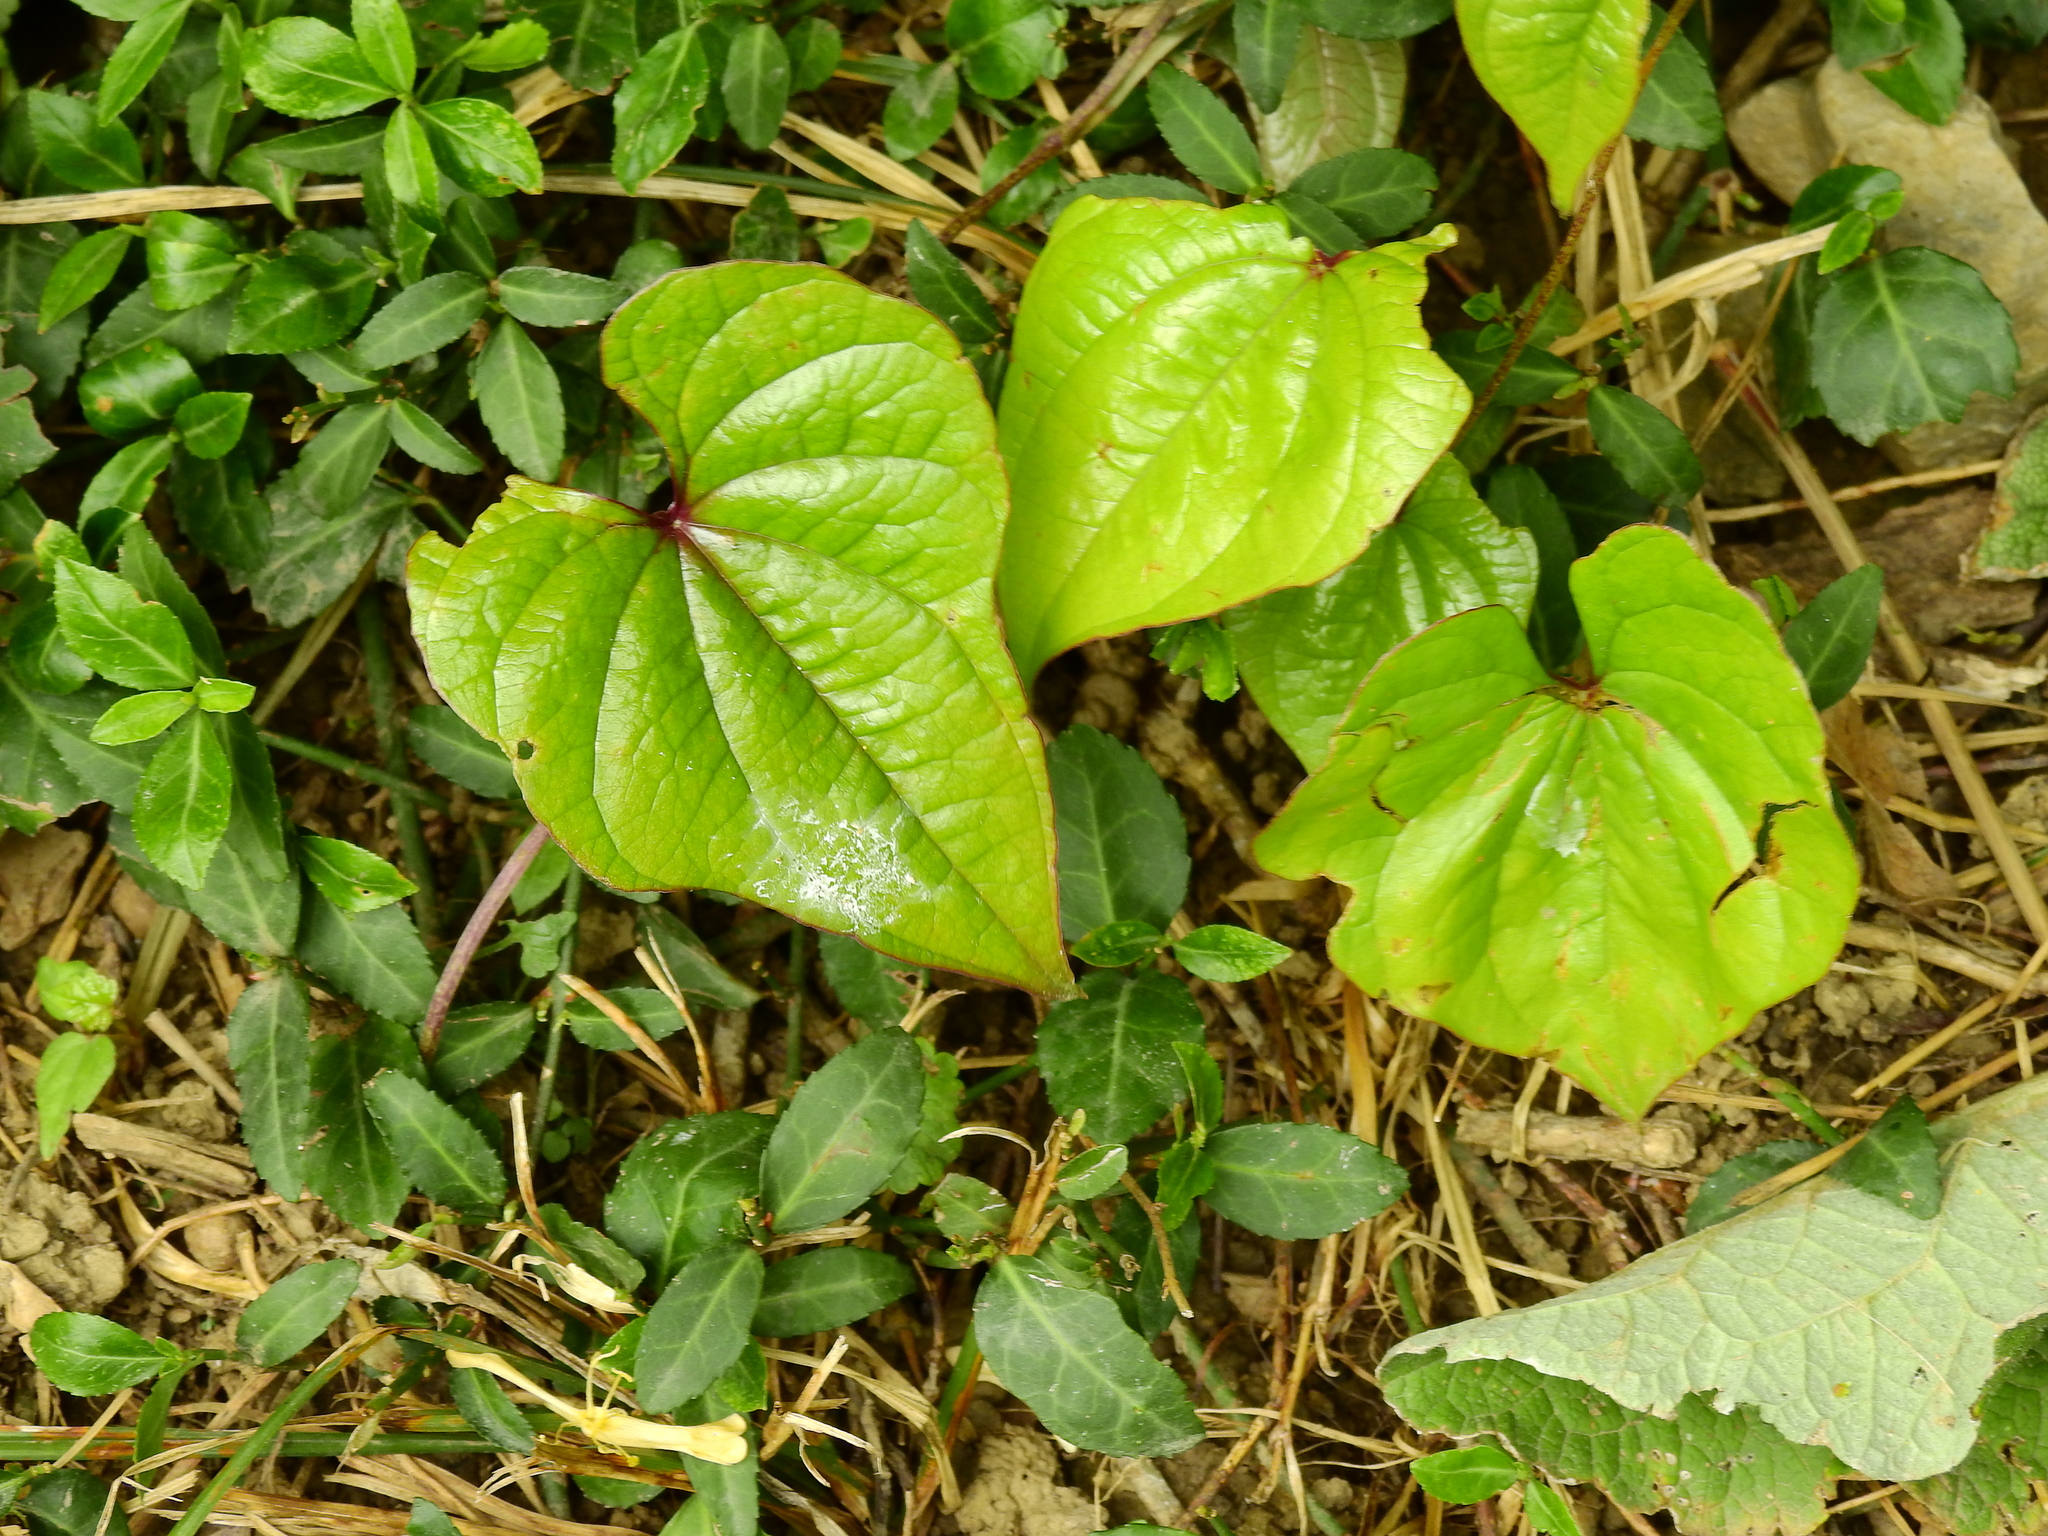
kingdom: Plantae
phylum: Tracheophyta
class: Liliopsida
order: Dioscoreales
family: Dioscoreaceae
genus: Dioscorea
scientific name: Dioscorea polystachya
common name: Chinese yam
